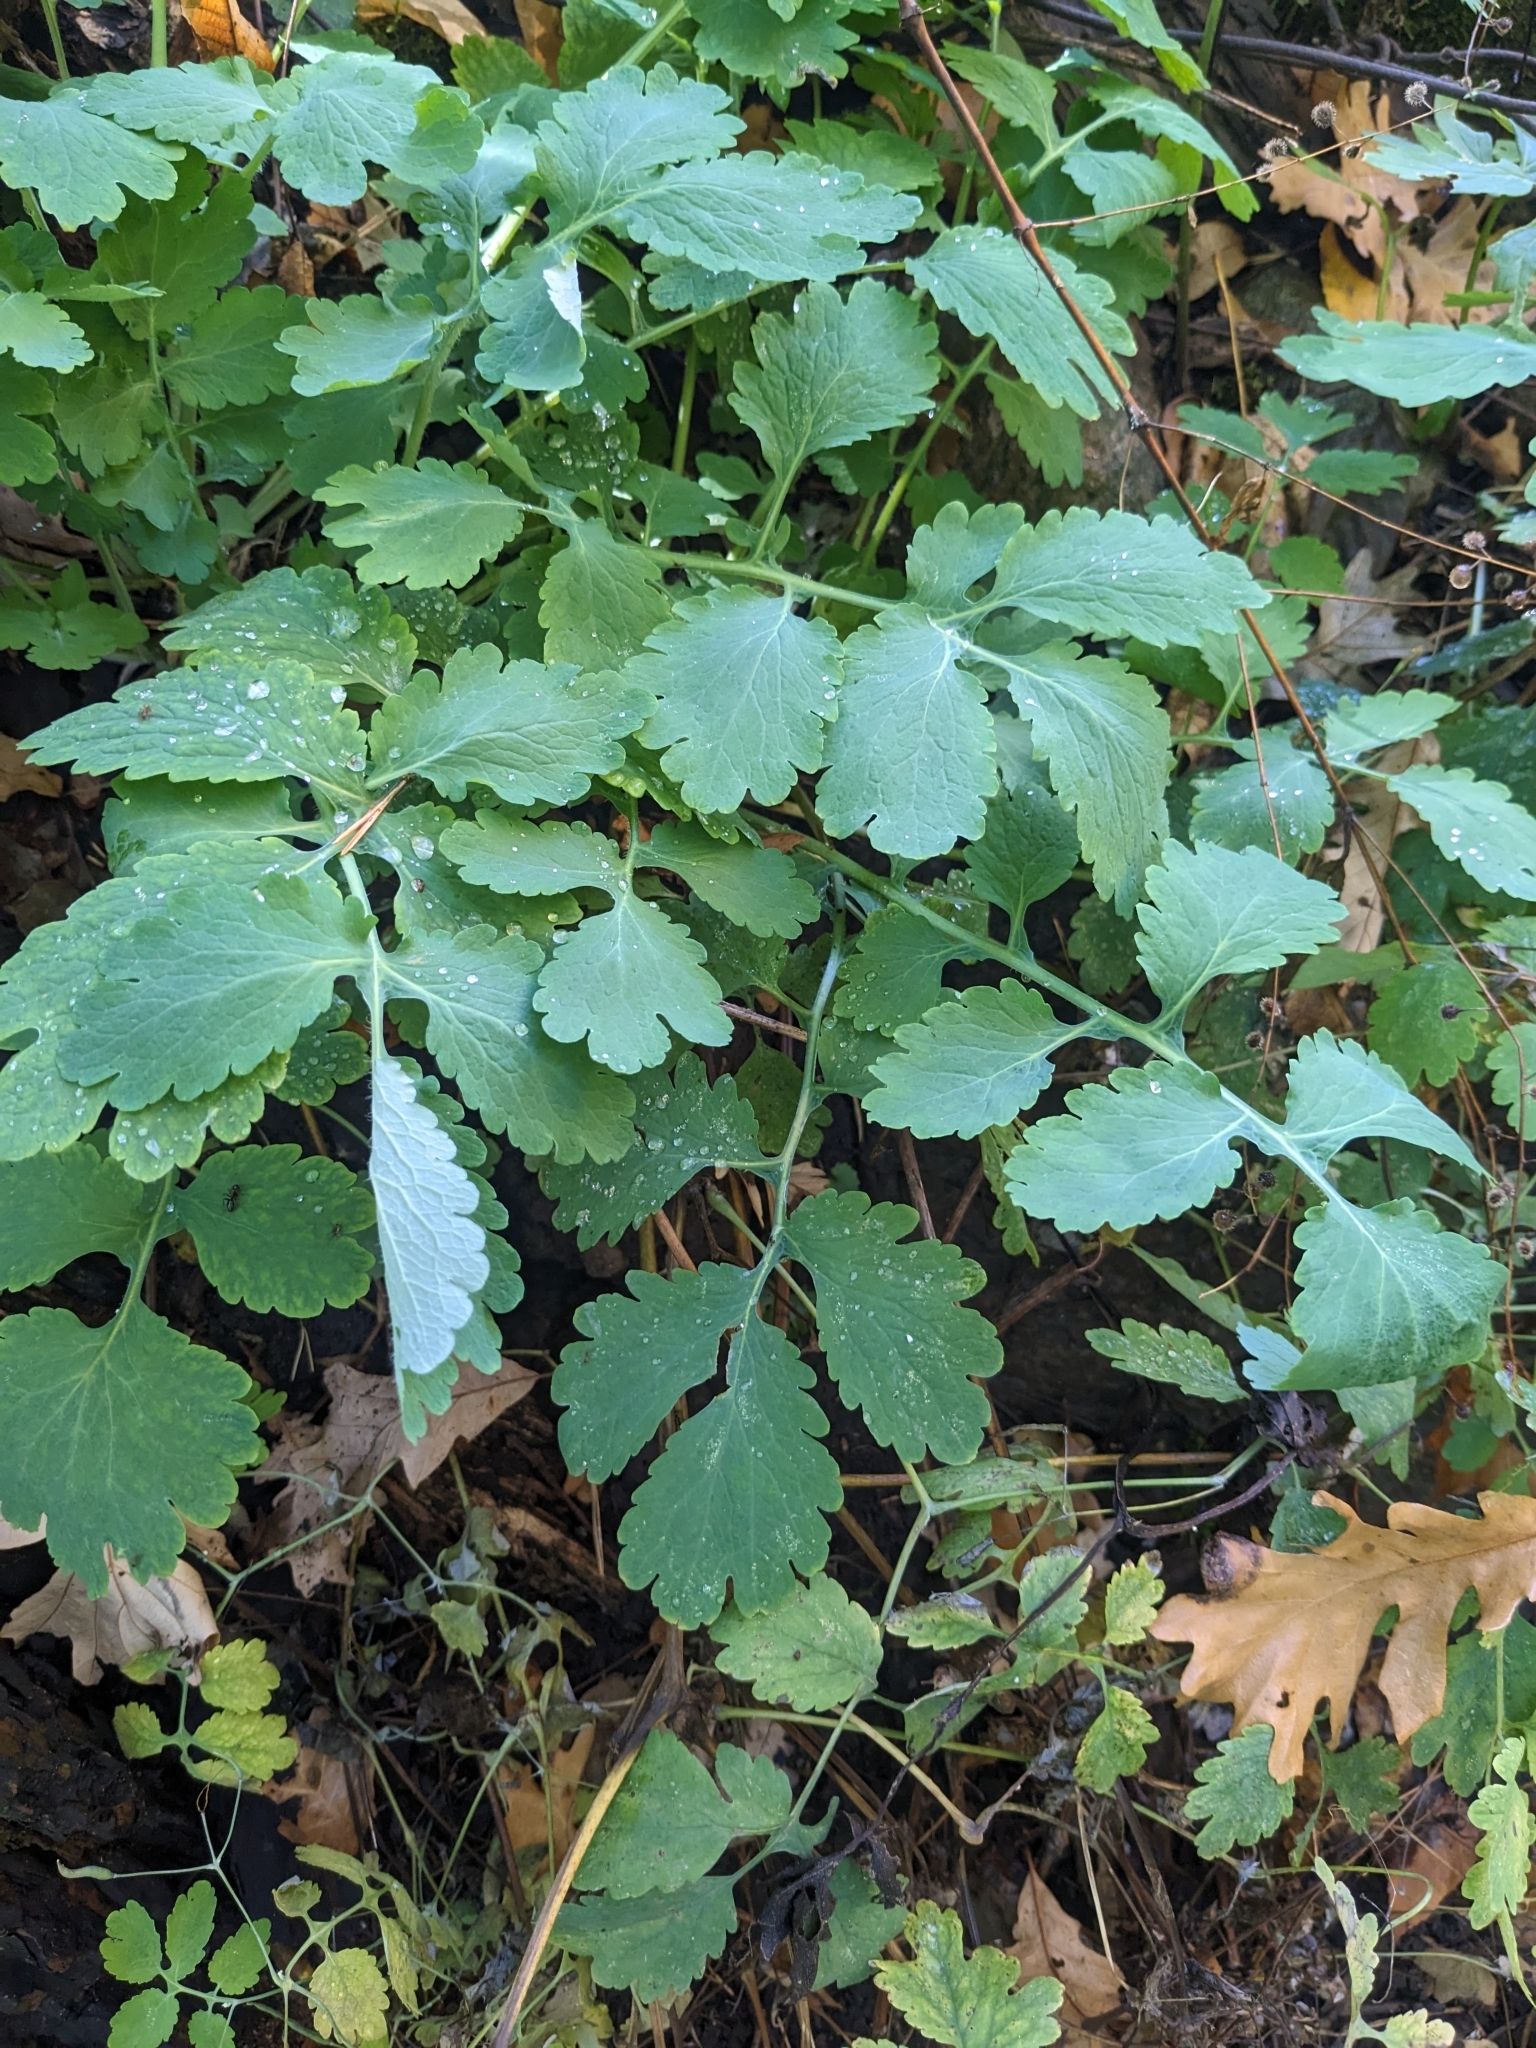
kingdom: Plantae
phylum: Tracheophyta
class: Magnoliopsida
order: Ranunculales
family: Papaveraceae
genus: Chelidonium
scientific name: Chelidonium majus
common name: Greater celandine
